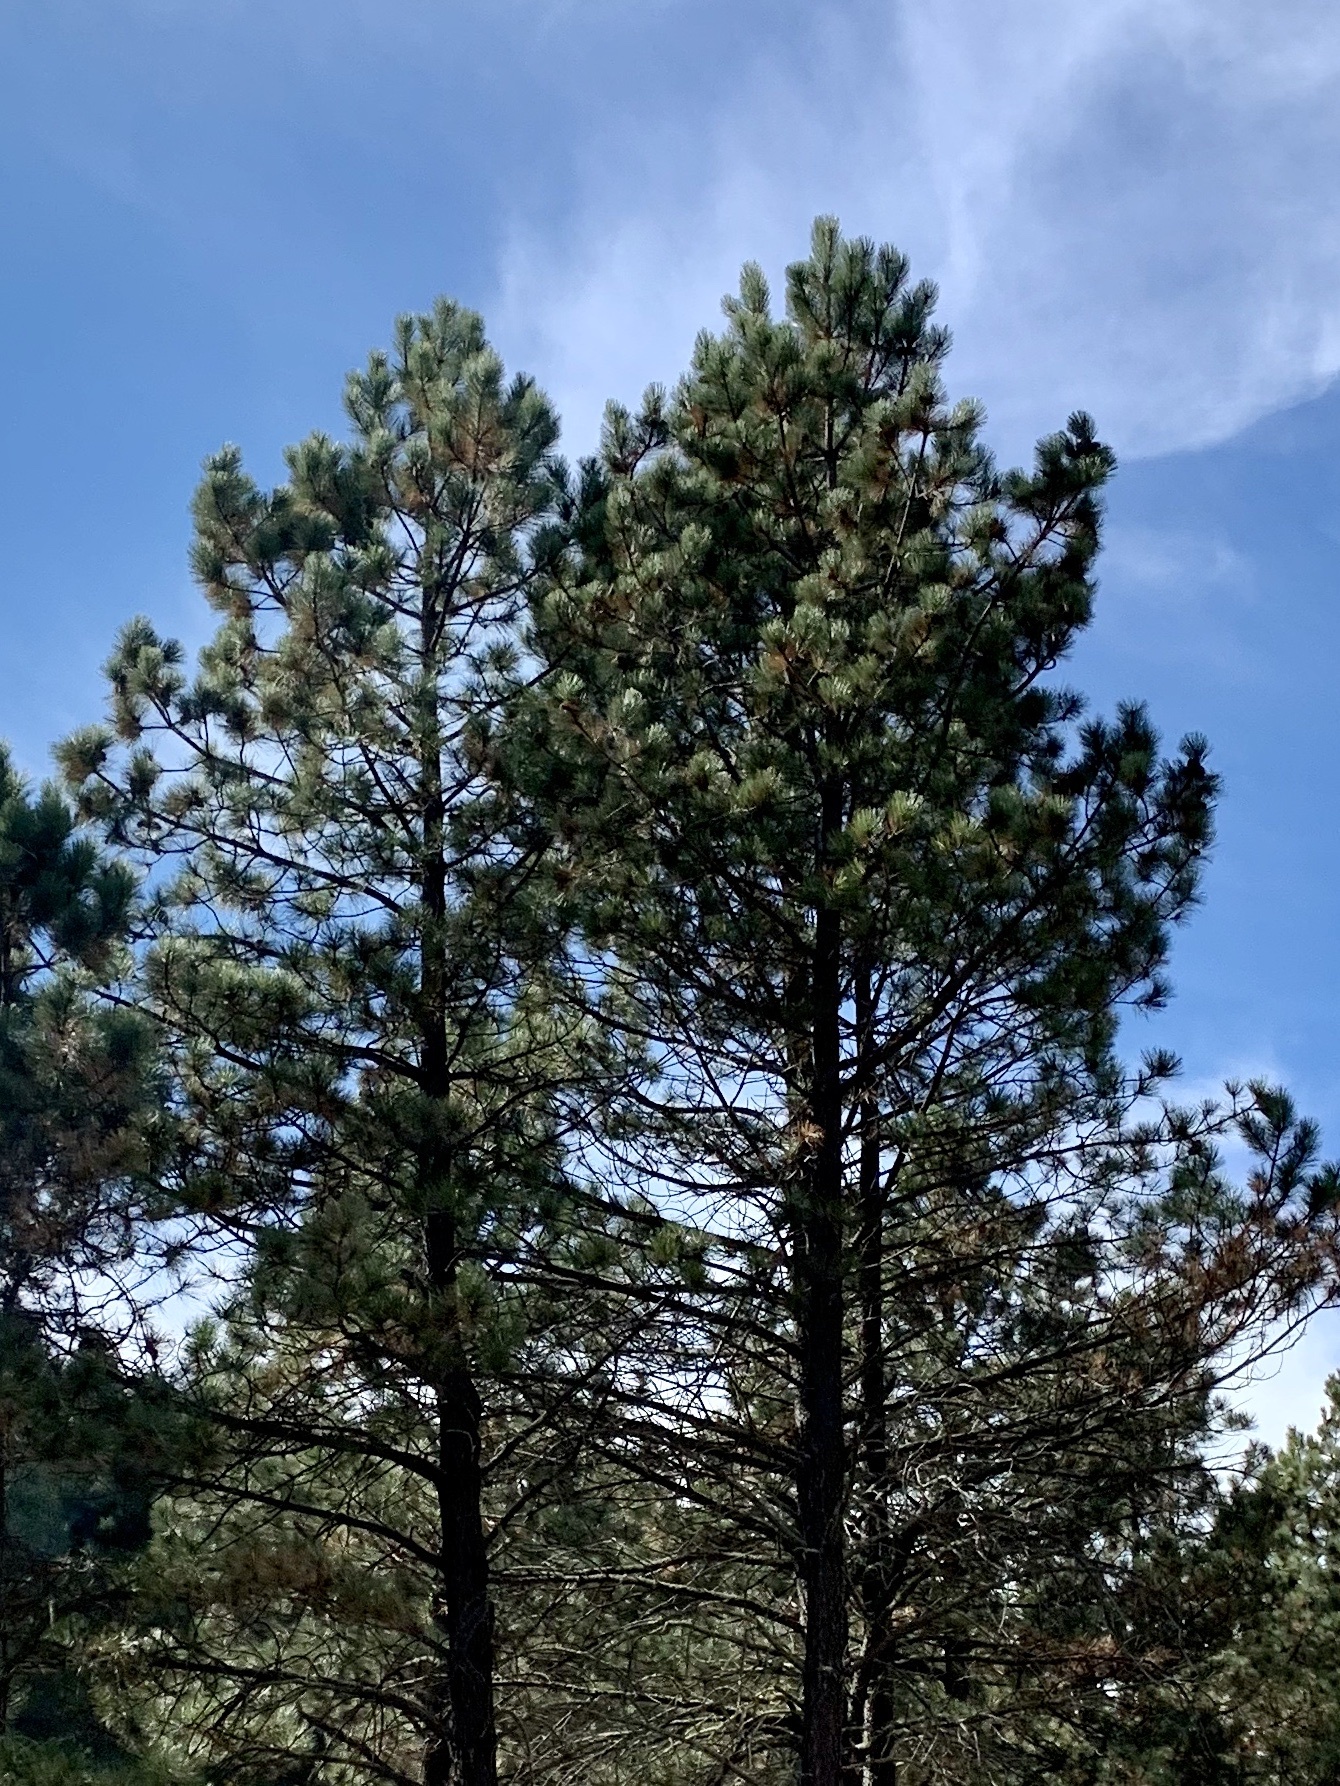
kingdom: Plantae
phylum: Tracheophyta
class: Pinopsida
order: Pinales
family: Pinaceae
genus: Pinus
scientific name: Pinus ponderosa
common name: Western yellow-pine
